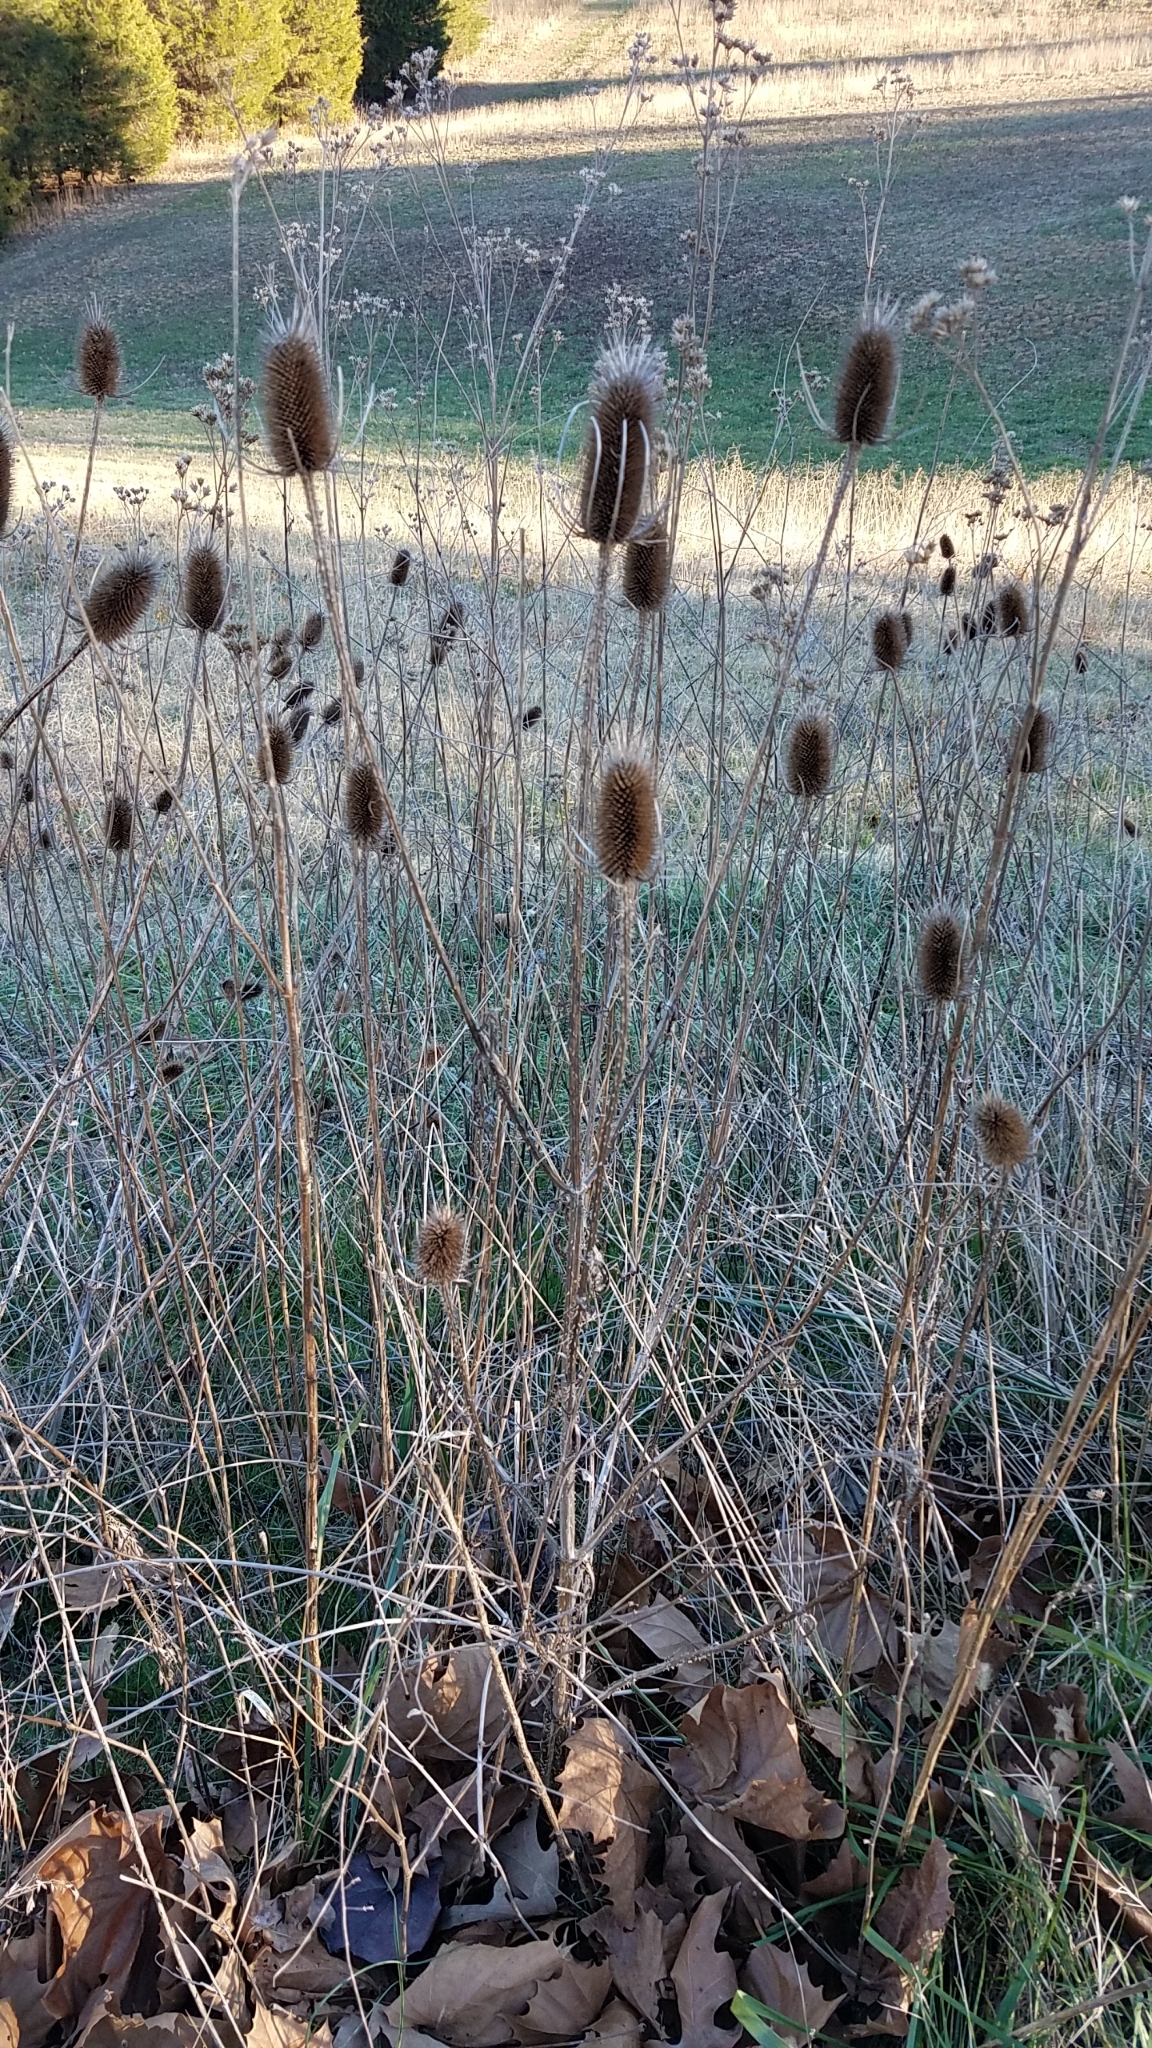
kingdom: Plantae
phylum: Tracheophyta
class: Magnoliopsida
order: Dipsacales
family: Caprifoliaceae
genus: Dipsacus
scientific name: Dipsacus fullonum
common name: Teasel
